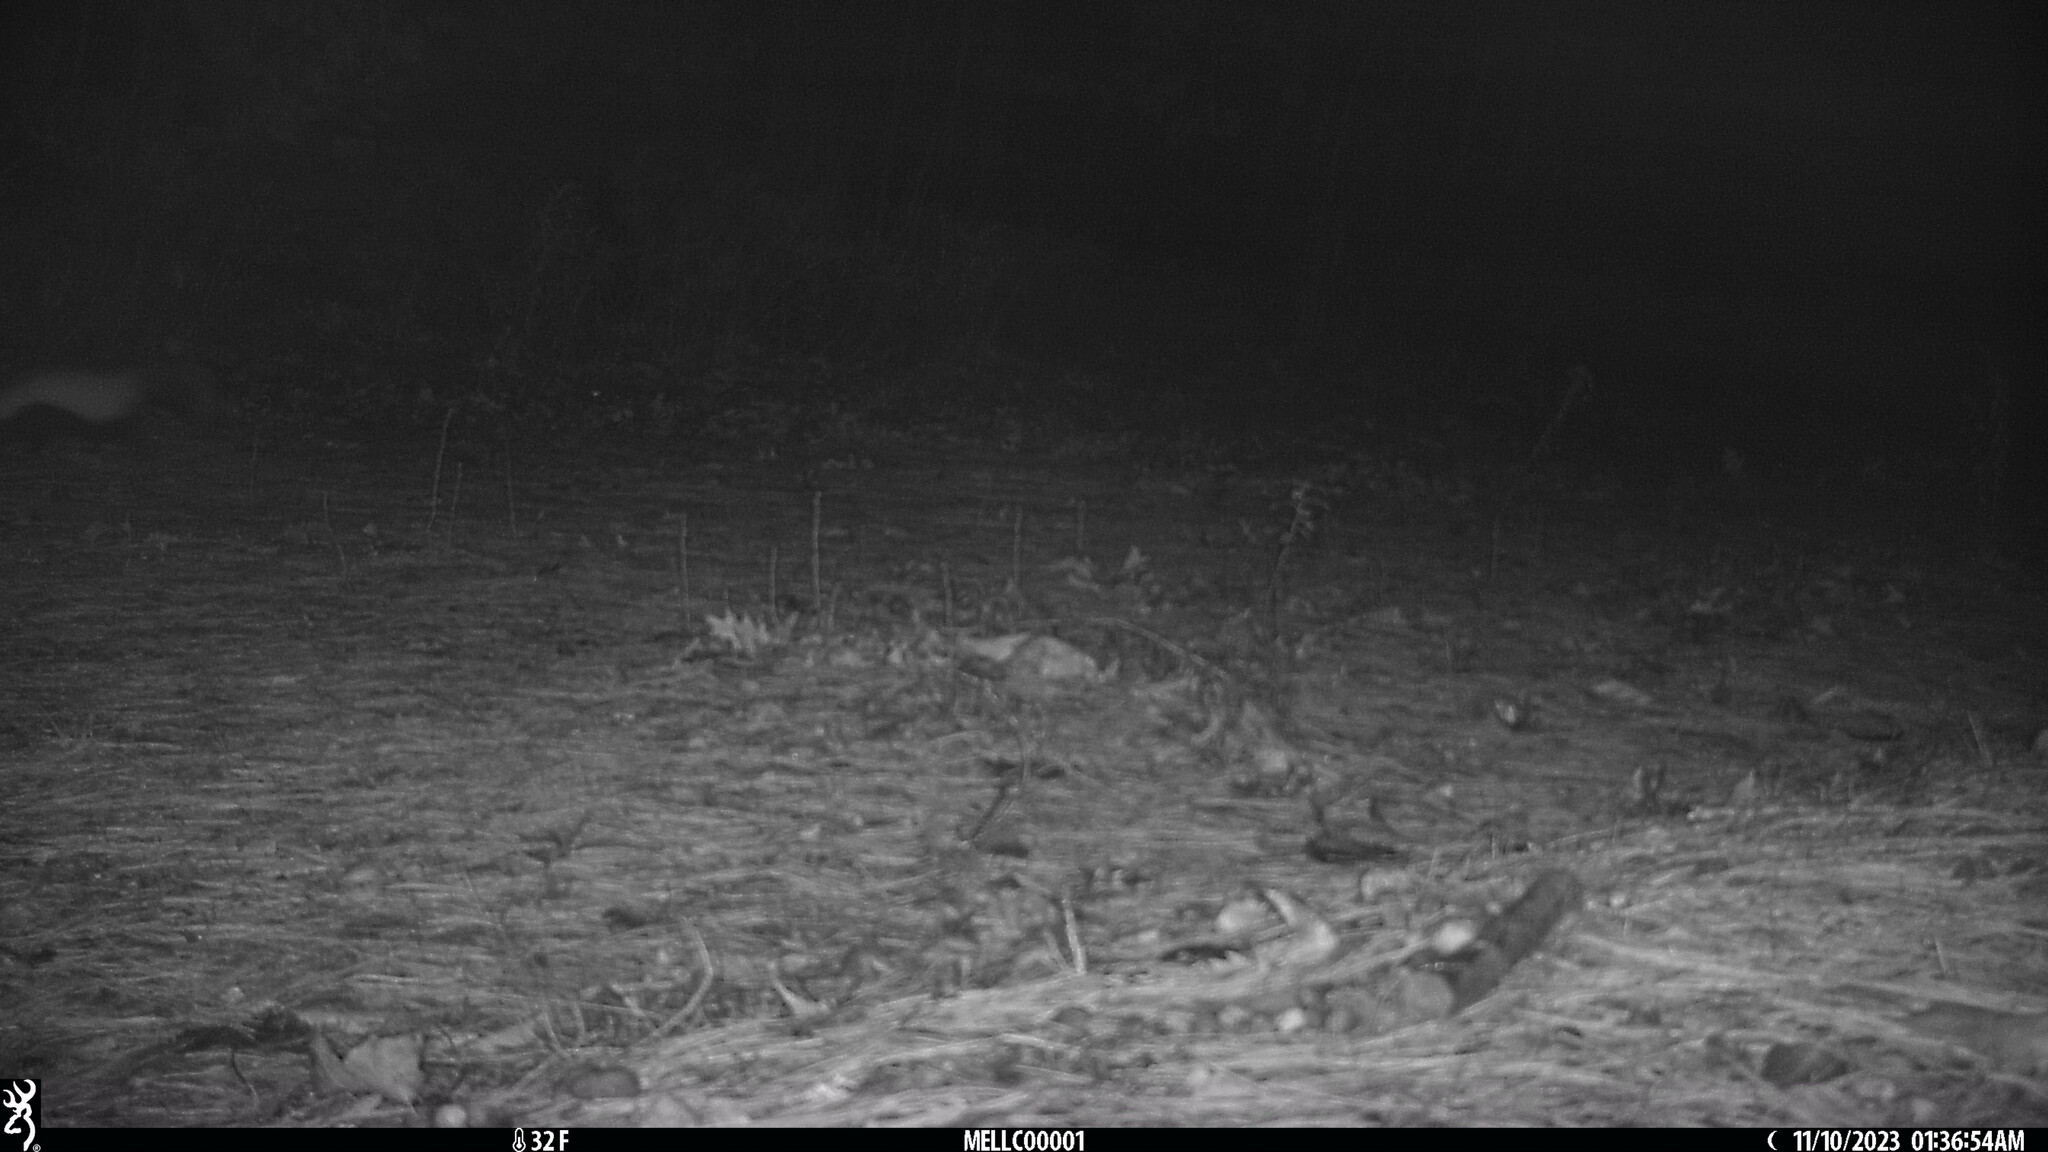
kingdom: Animalia
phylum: Chordata
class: Mammalia
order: Carnivora
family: Mephitidae
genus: Mephitis
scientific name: Mephitis mephitis
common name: Striped skunk
